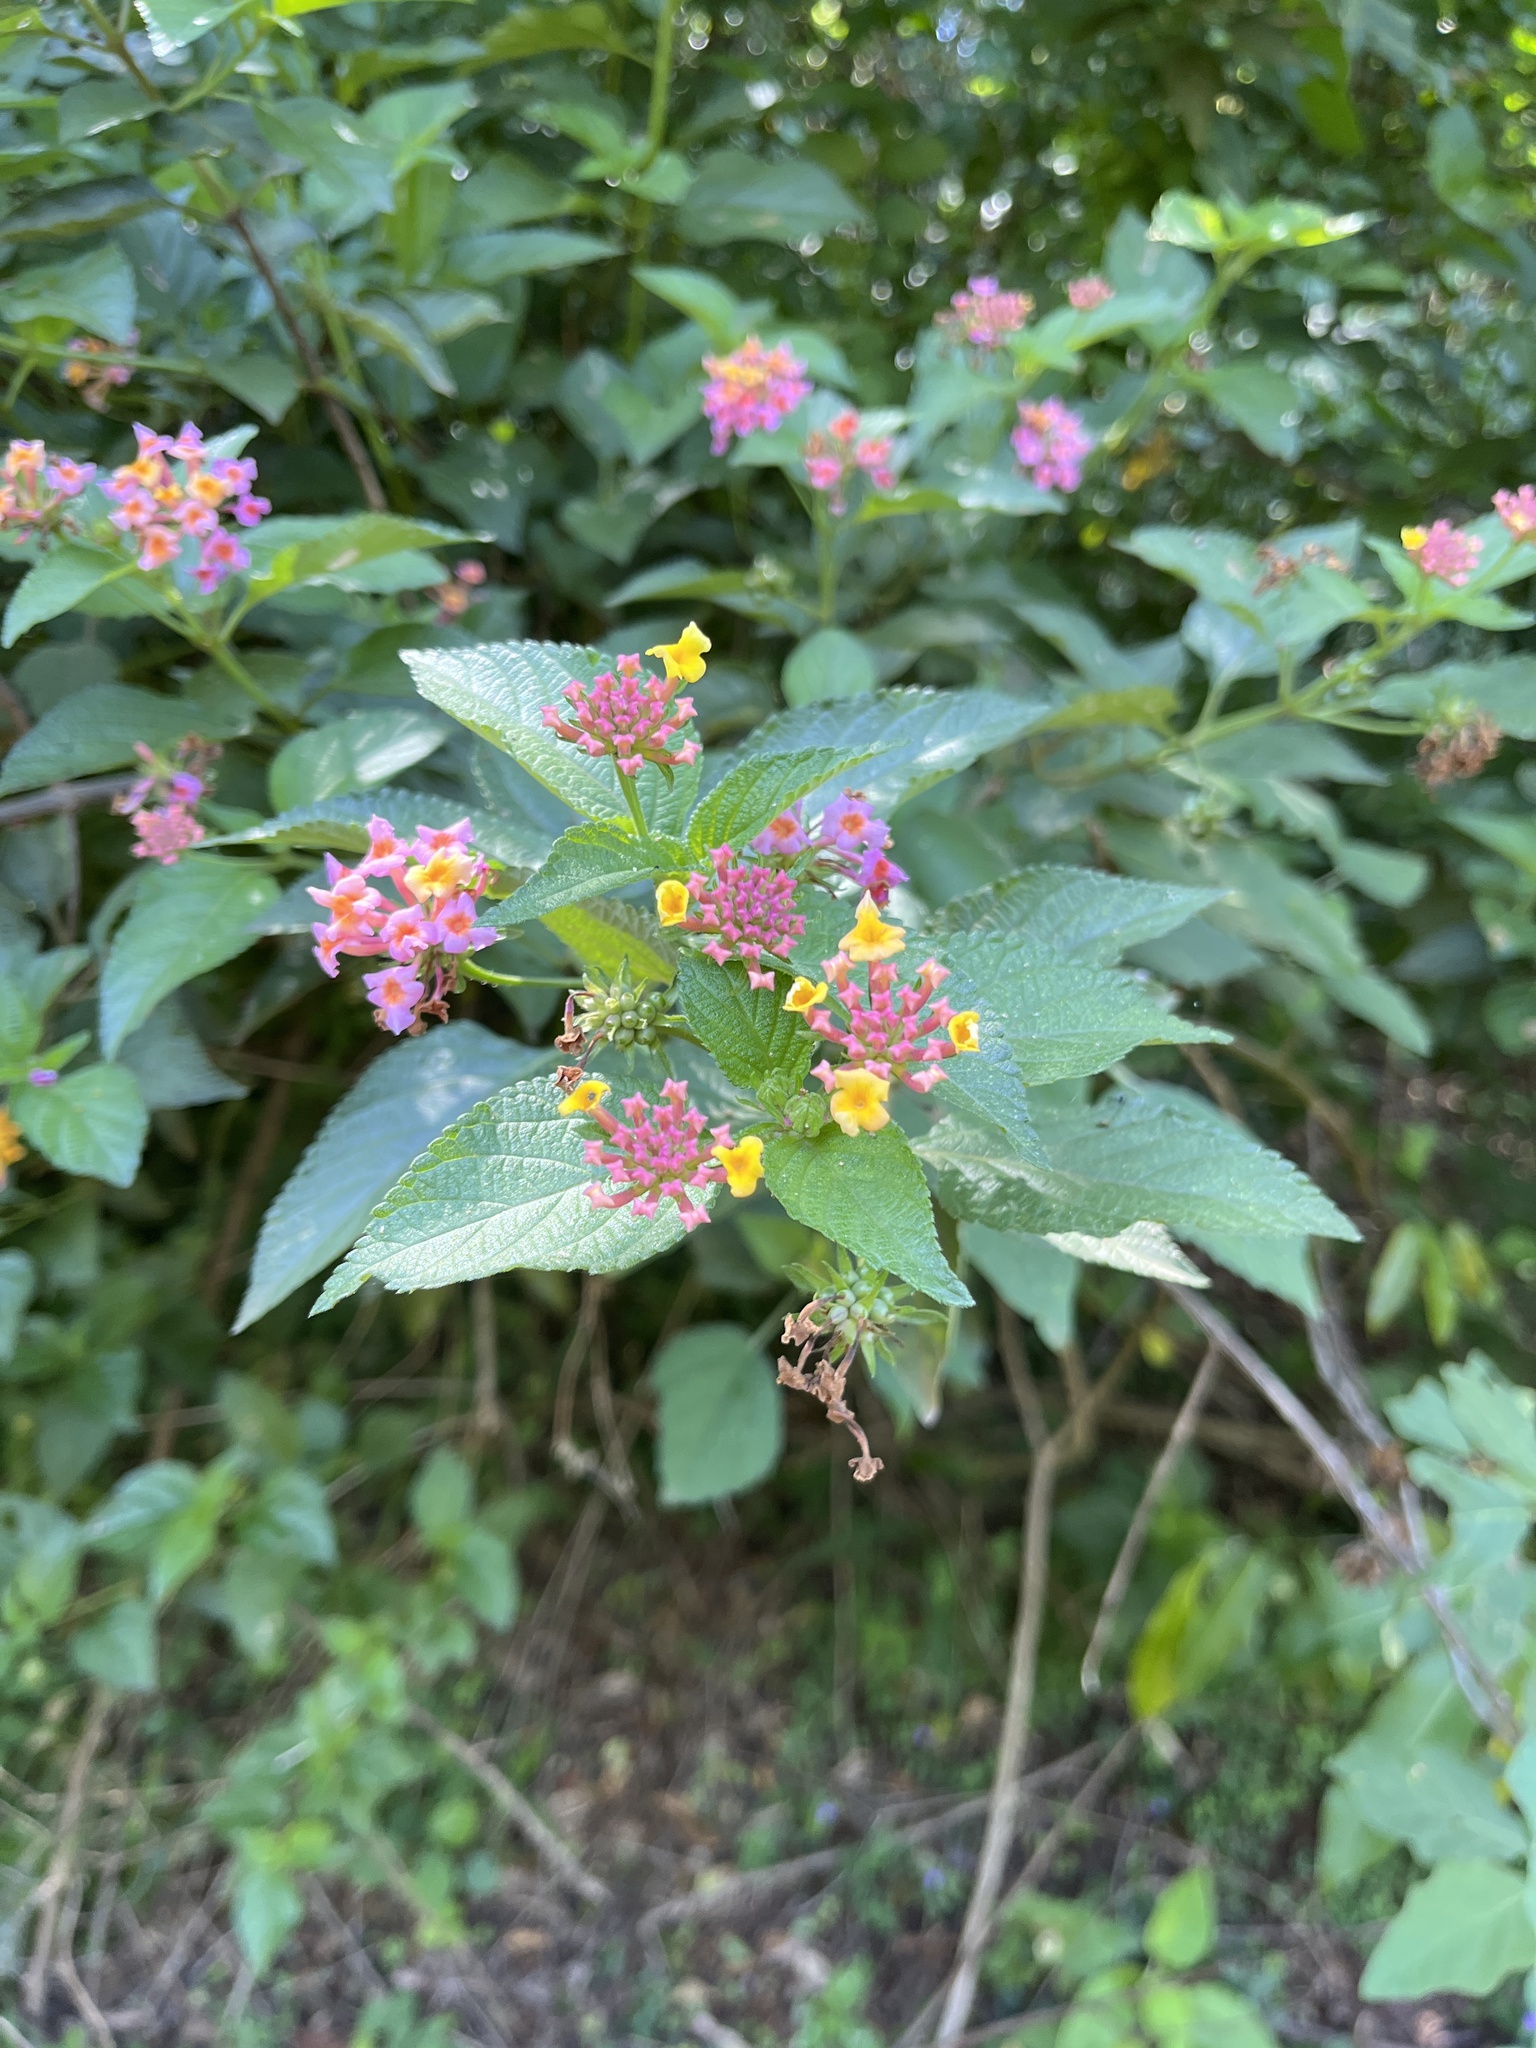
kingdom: Plantae
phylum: Tracheophyta
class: Magnoliopsida
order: Lamiales
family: Verbenaceae
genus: Lantana
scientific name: Lantana camara
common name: Lantana
